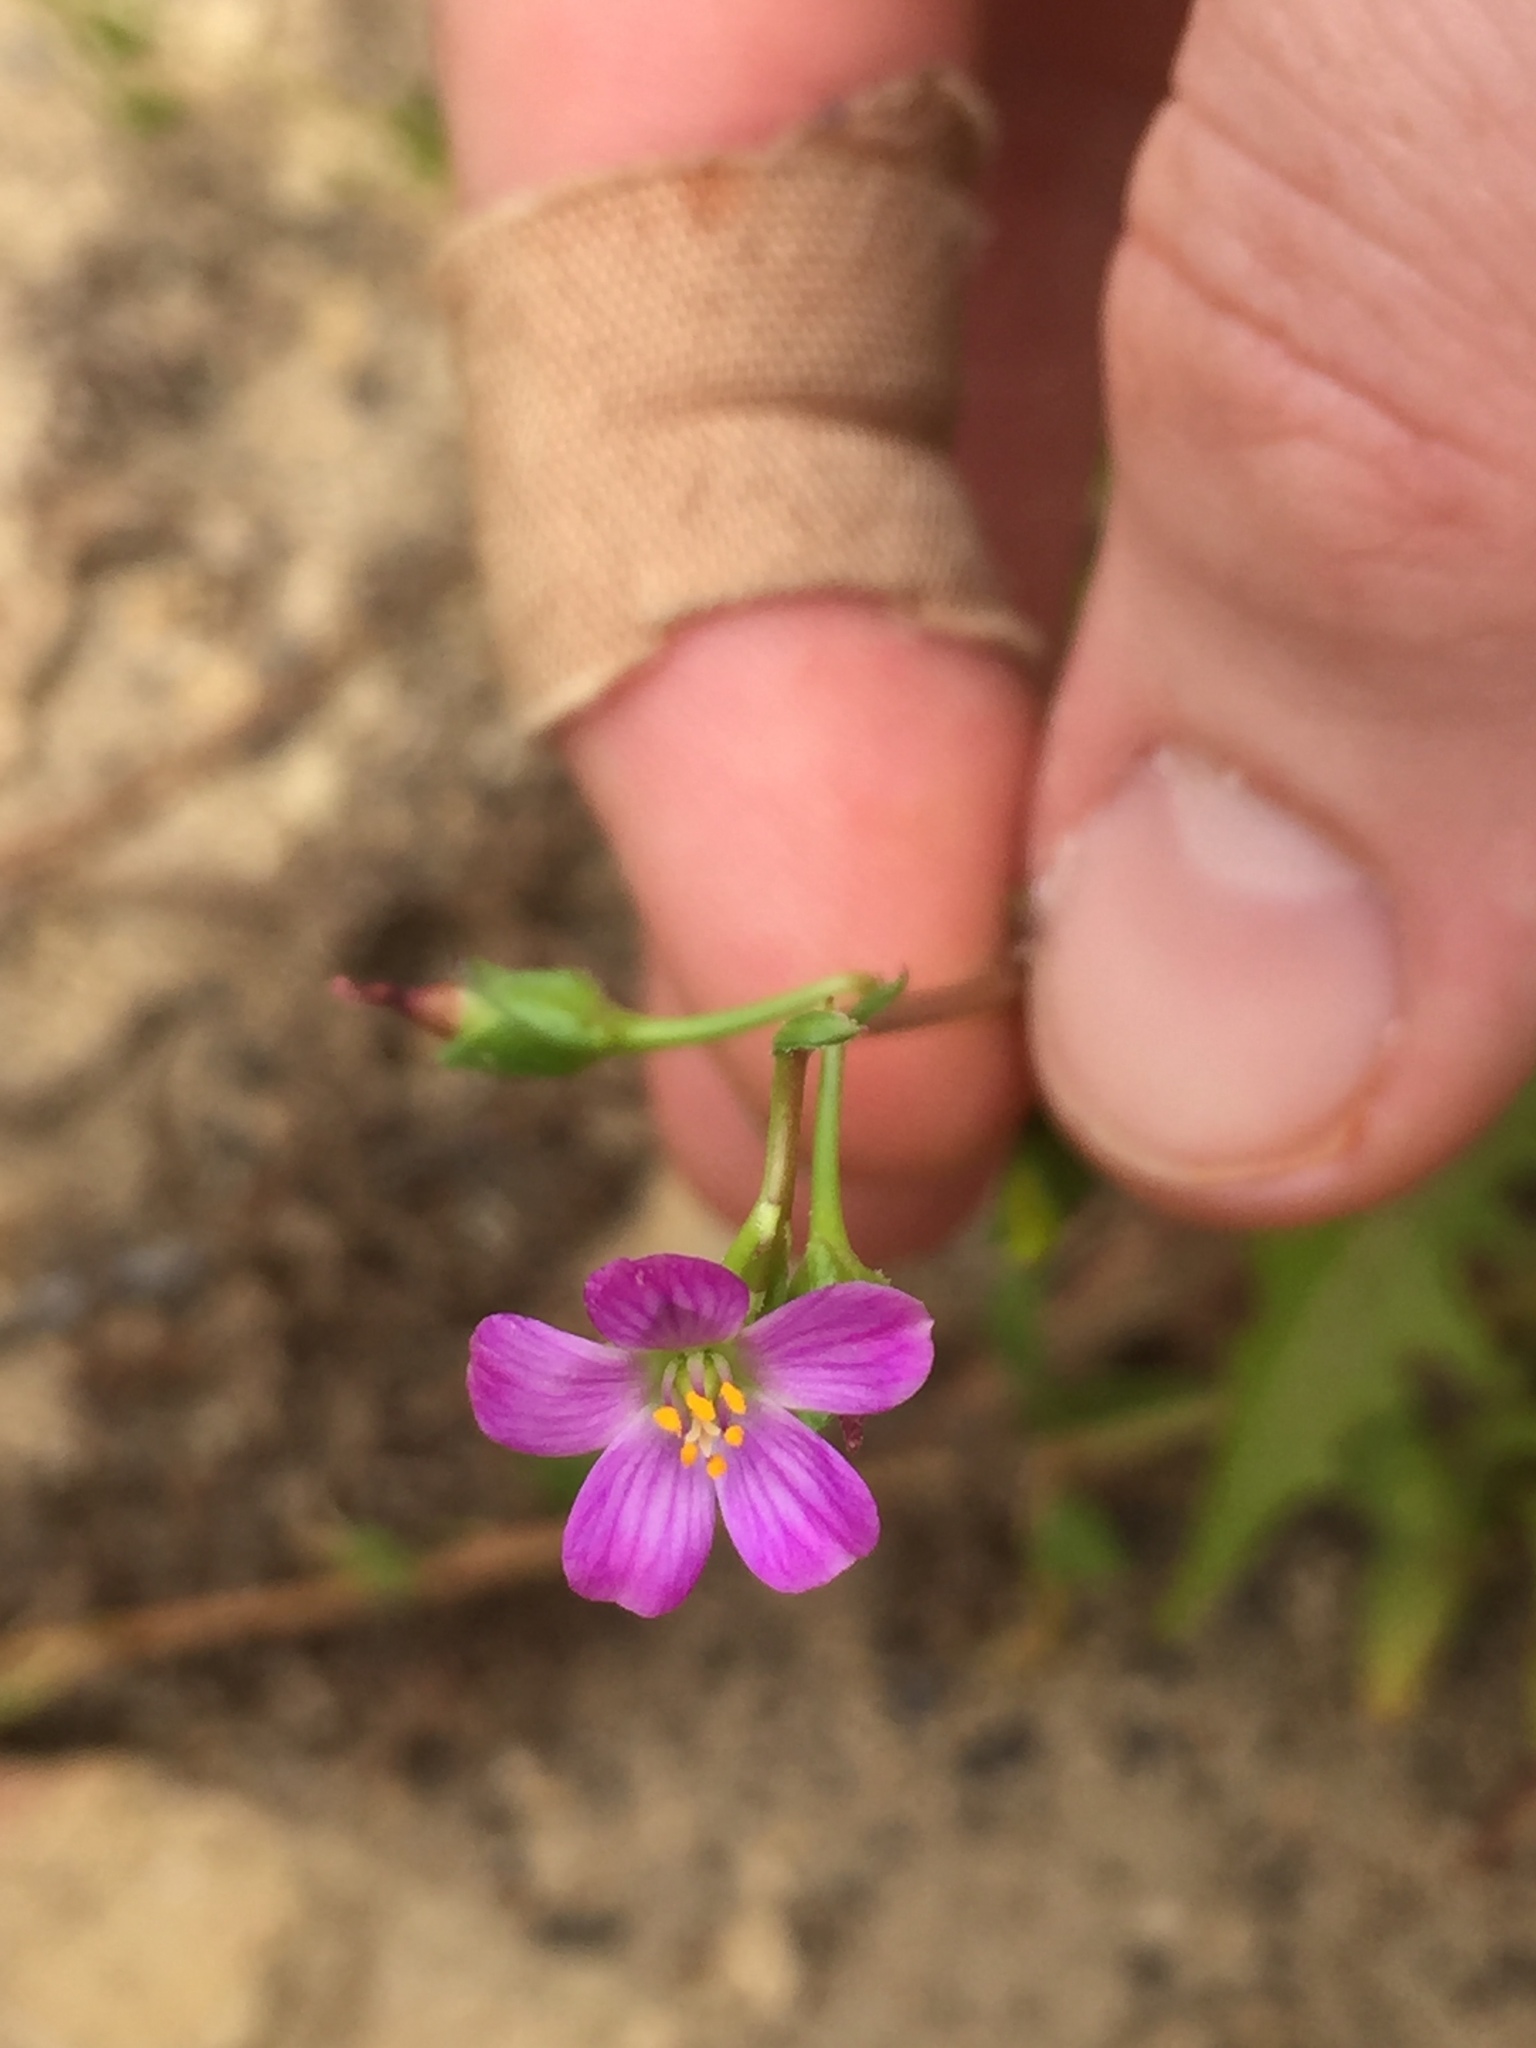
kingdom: Plantae
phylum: Tracheophyta
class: Magnoliopsida
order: Caryophyllales
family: Montiaceae
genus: Calandrinia
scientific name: Calandrinia menziesii
